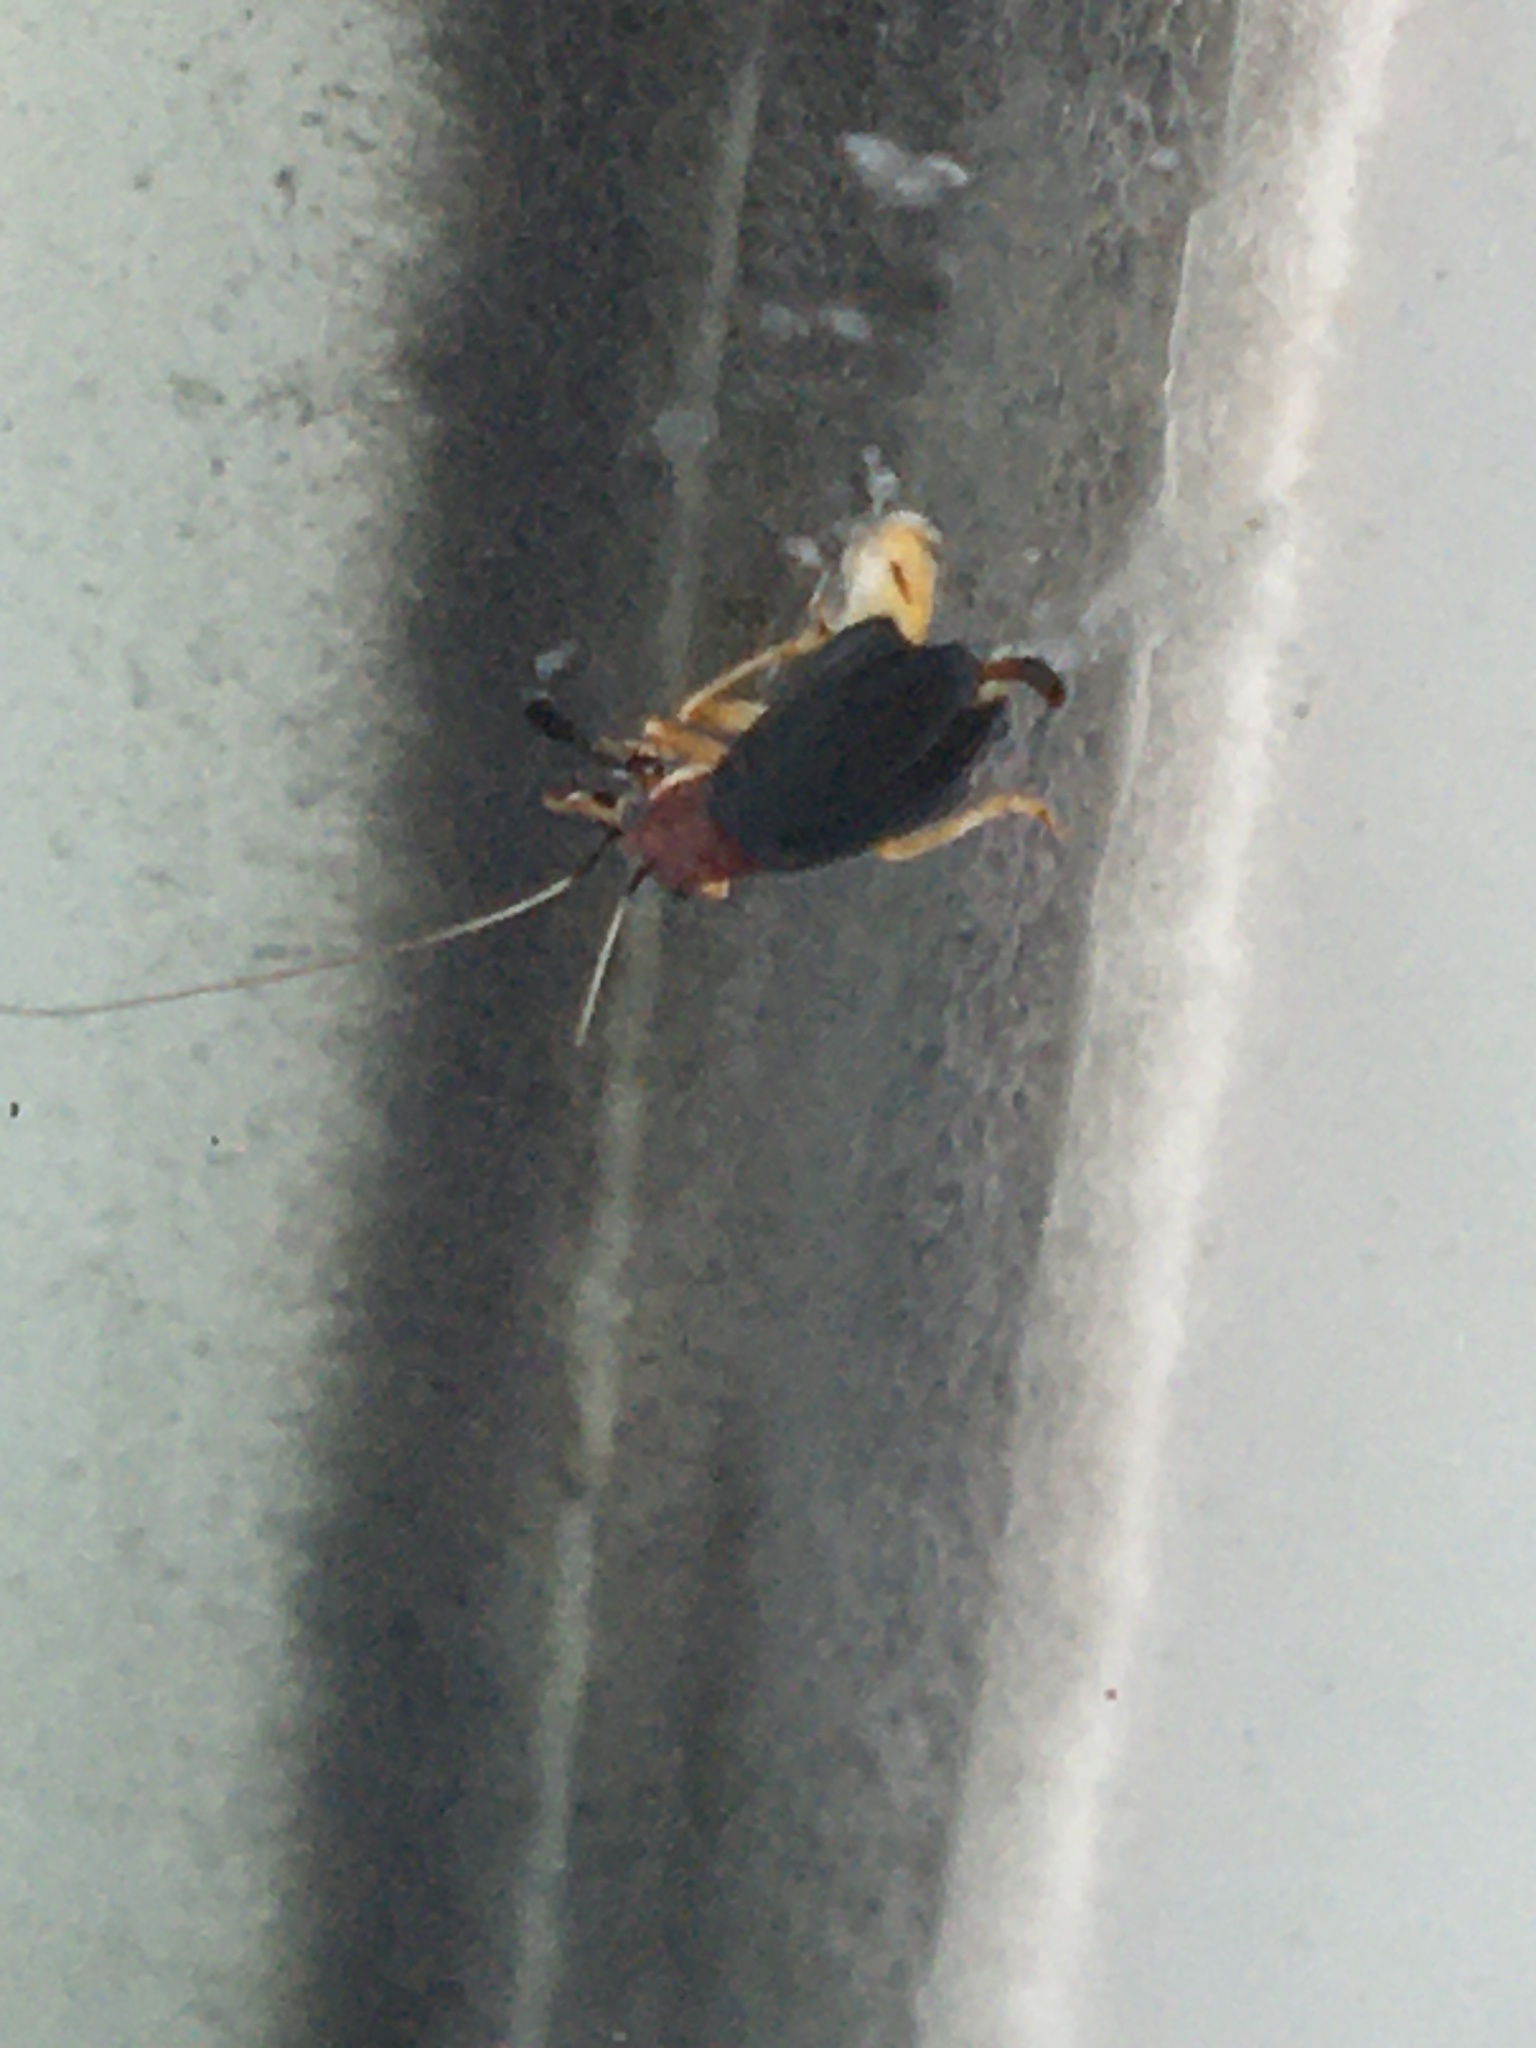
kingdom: Animalia
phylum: Arthropoda
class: Insecta
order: Orthoptera
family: Trigonidiidae
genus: Phyllopalpus
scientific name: Phyllopalpus pulchellus
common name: Handsome trig
